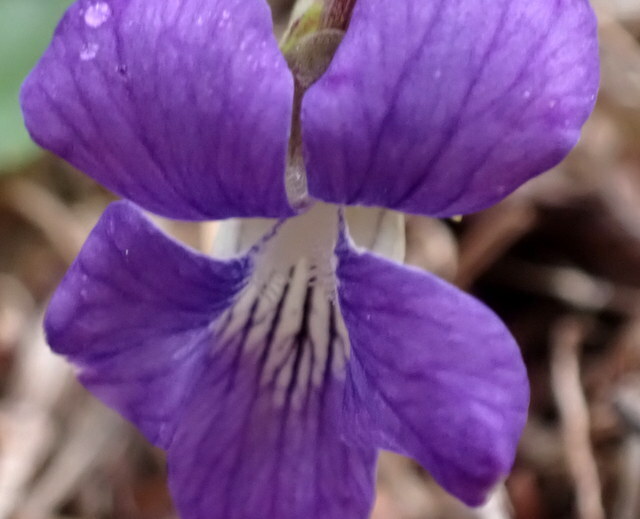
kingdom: Plantae
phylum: Tracheophyta
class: Magnoliopsida
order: Malpighiales
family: Violaceae
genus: Viola
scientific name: Viola sororia
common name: Dooryard violet
